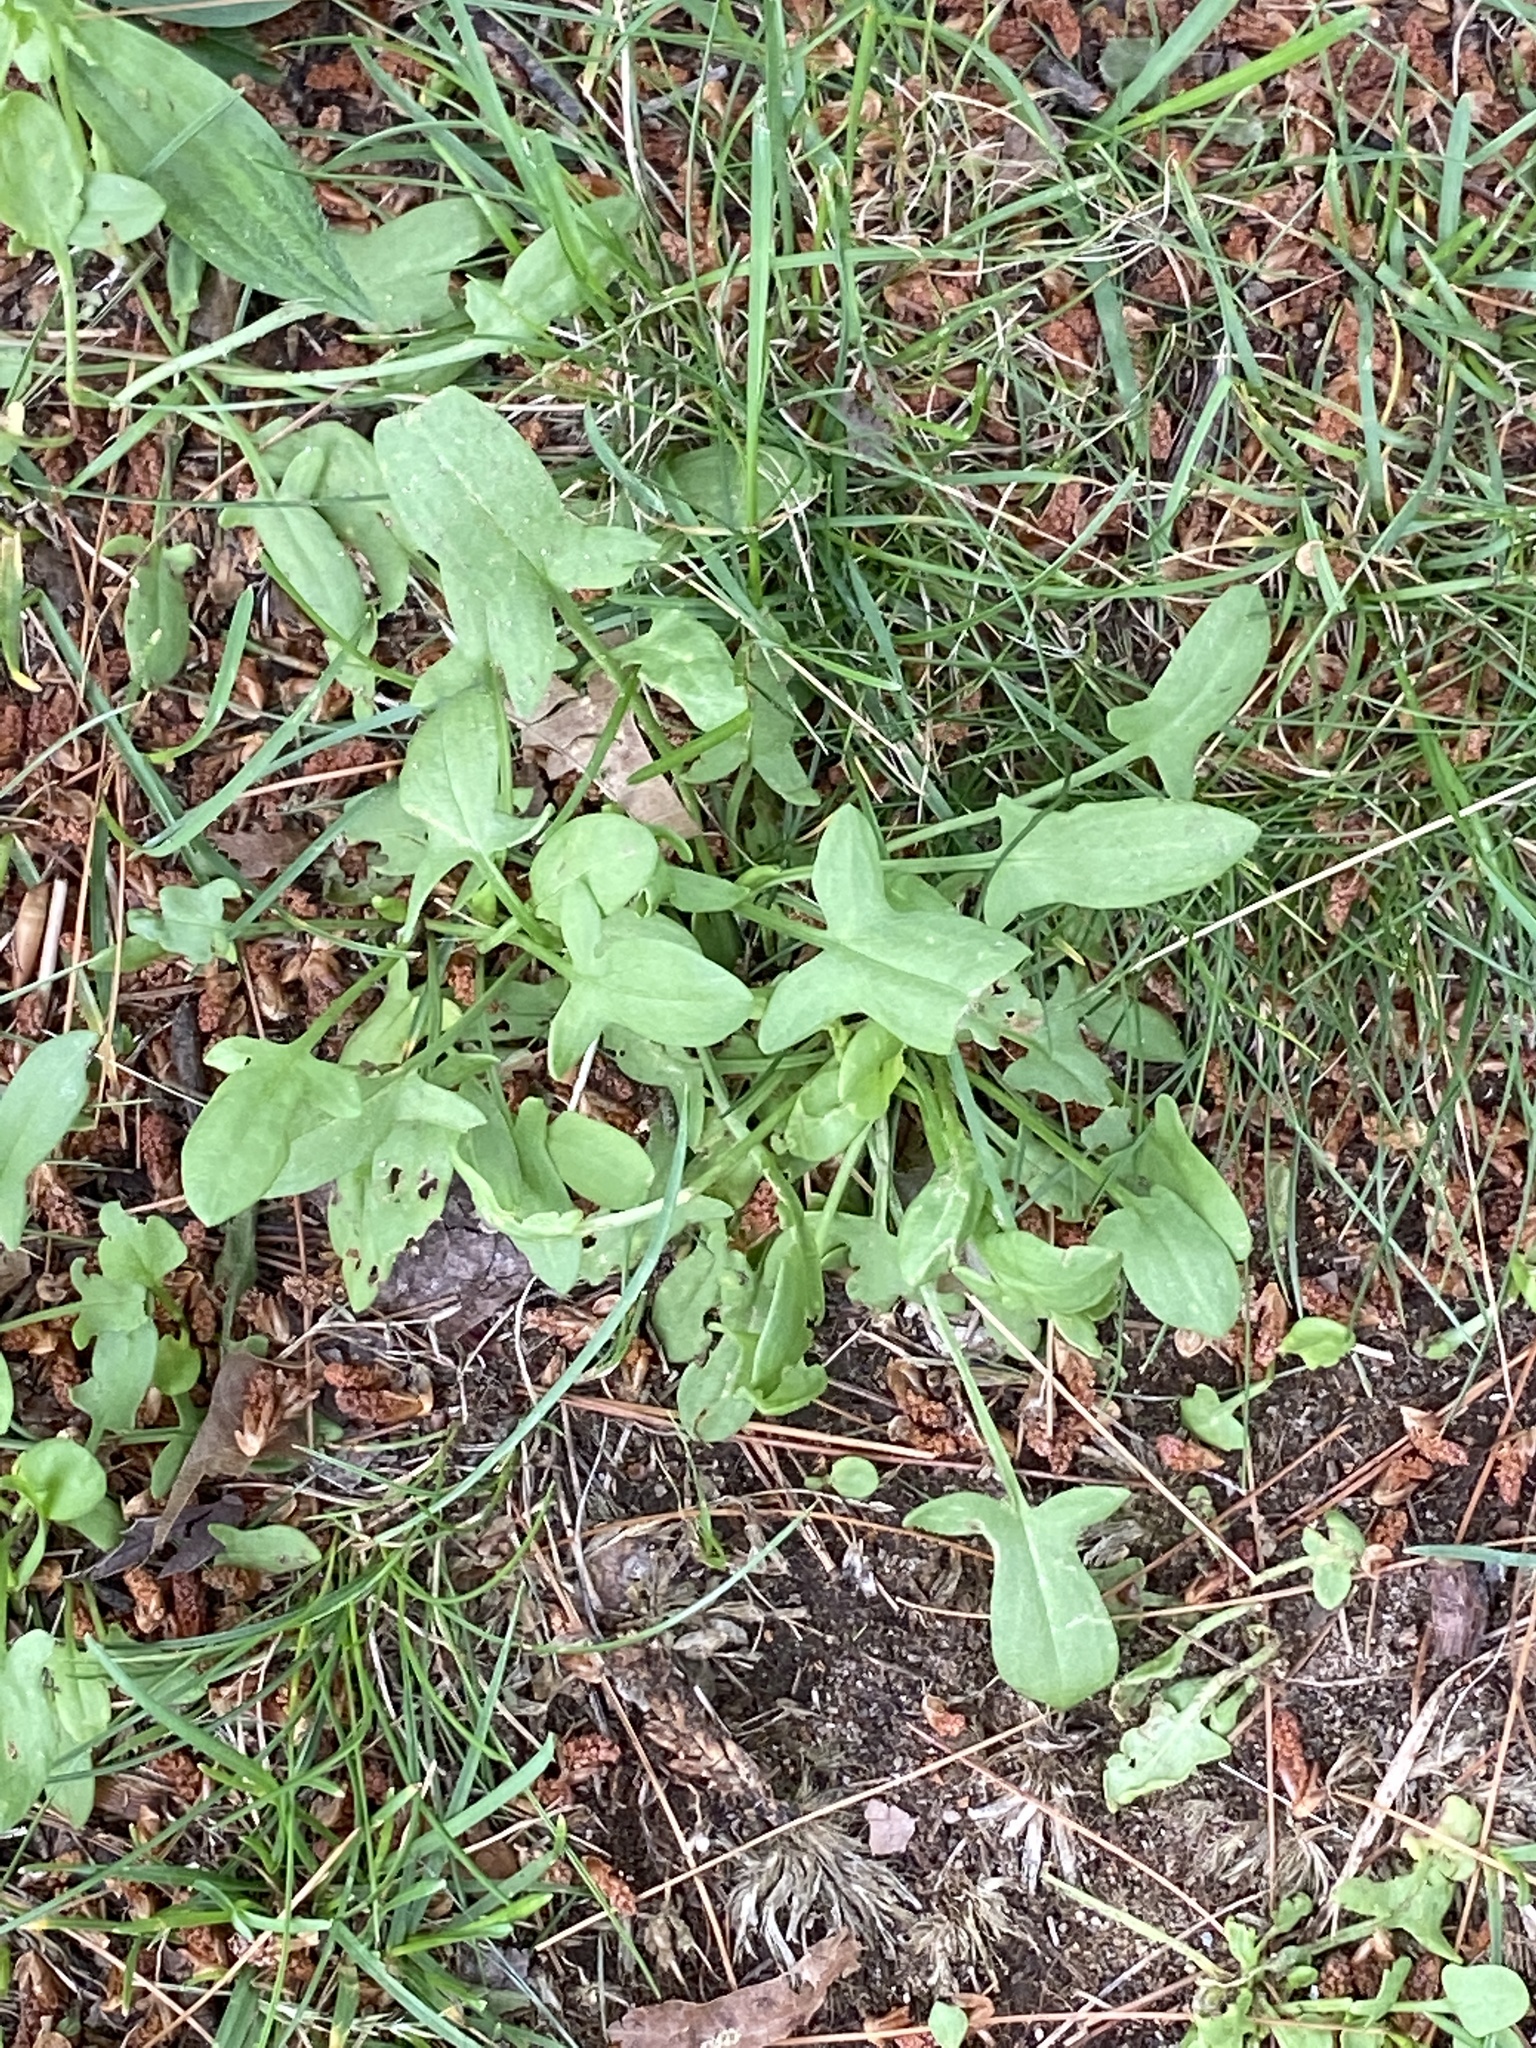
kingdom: Plantae
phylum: Tracheophyta
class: Magnoliopsida
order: Caryophyllales
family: Polygonaceae
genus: Rumex
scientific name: Rumex acetosella
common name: Common sheep sorrel
